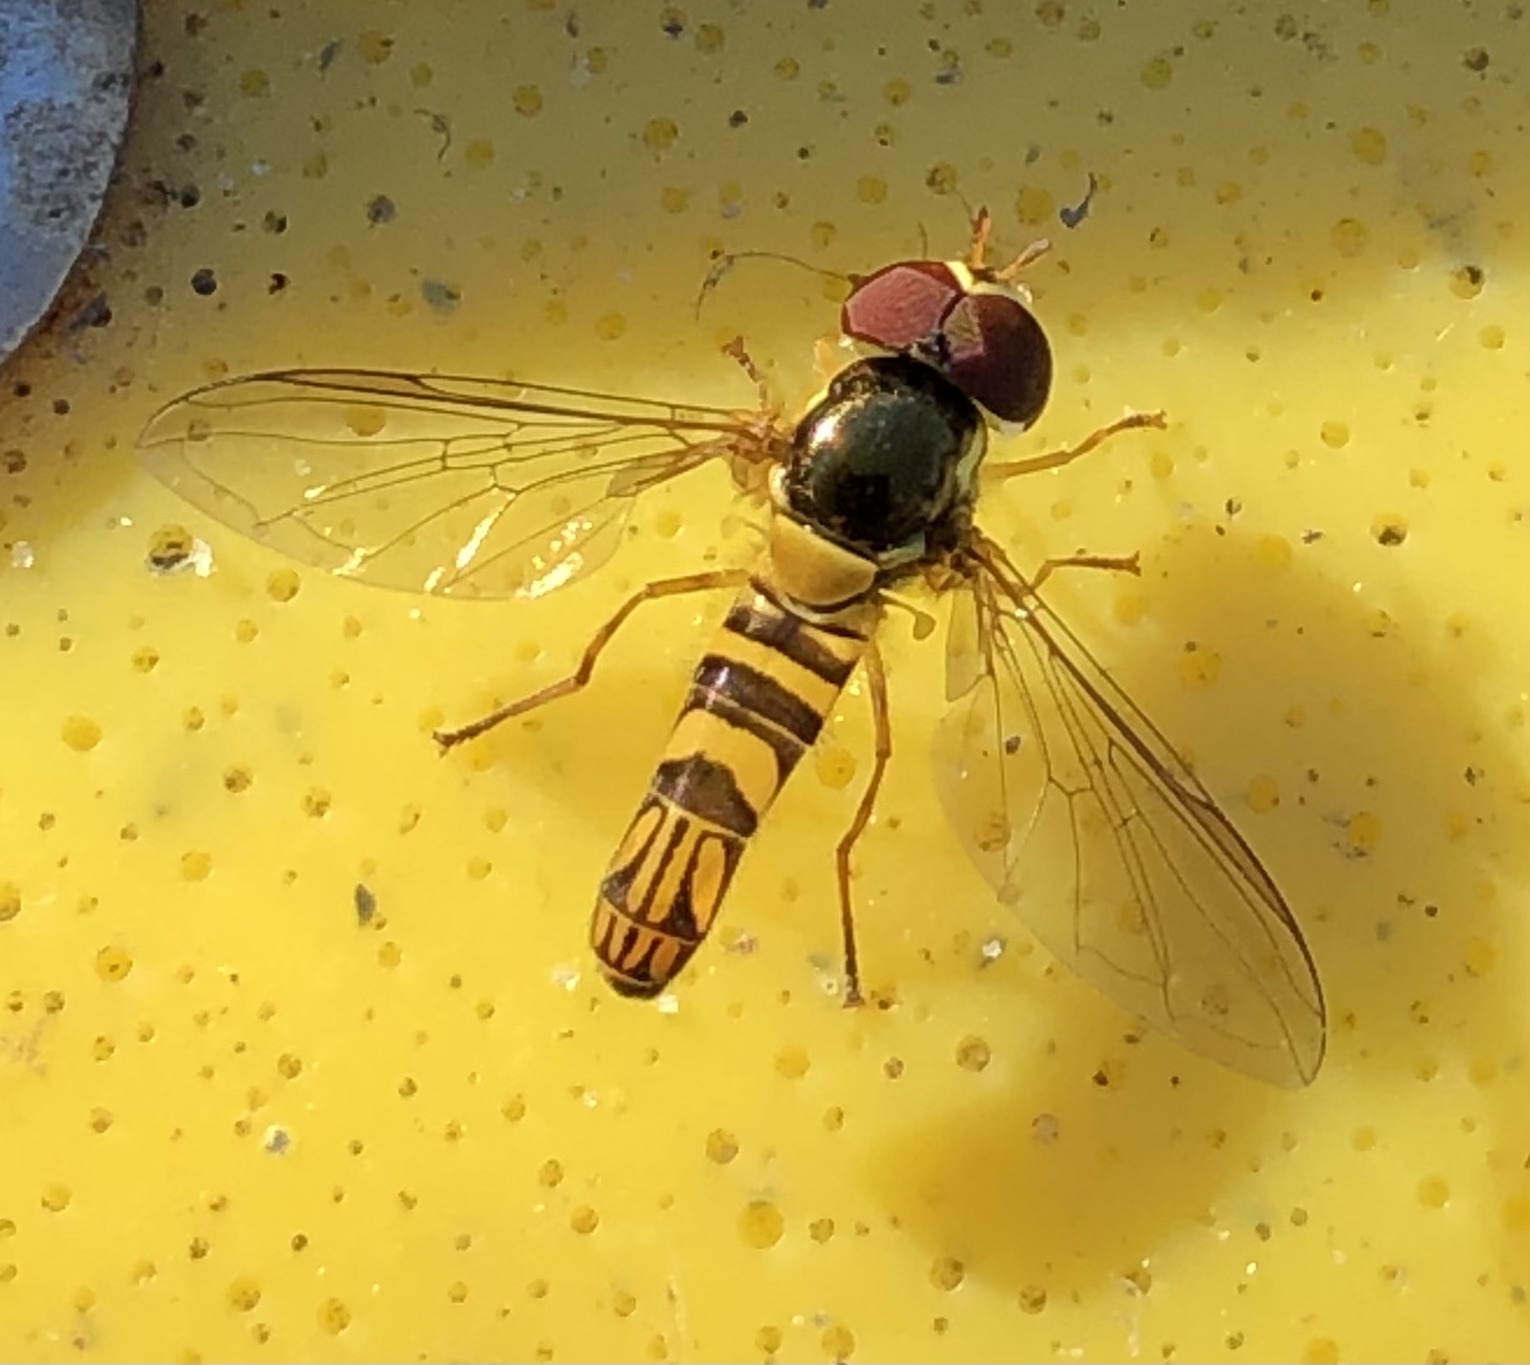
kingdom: Animalia
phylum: Arthropoda
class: Insecta
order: Diptera
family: Syrphidae
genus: Allograpta
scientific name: Allograpta obliqua
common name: Common oblique syrphid
